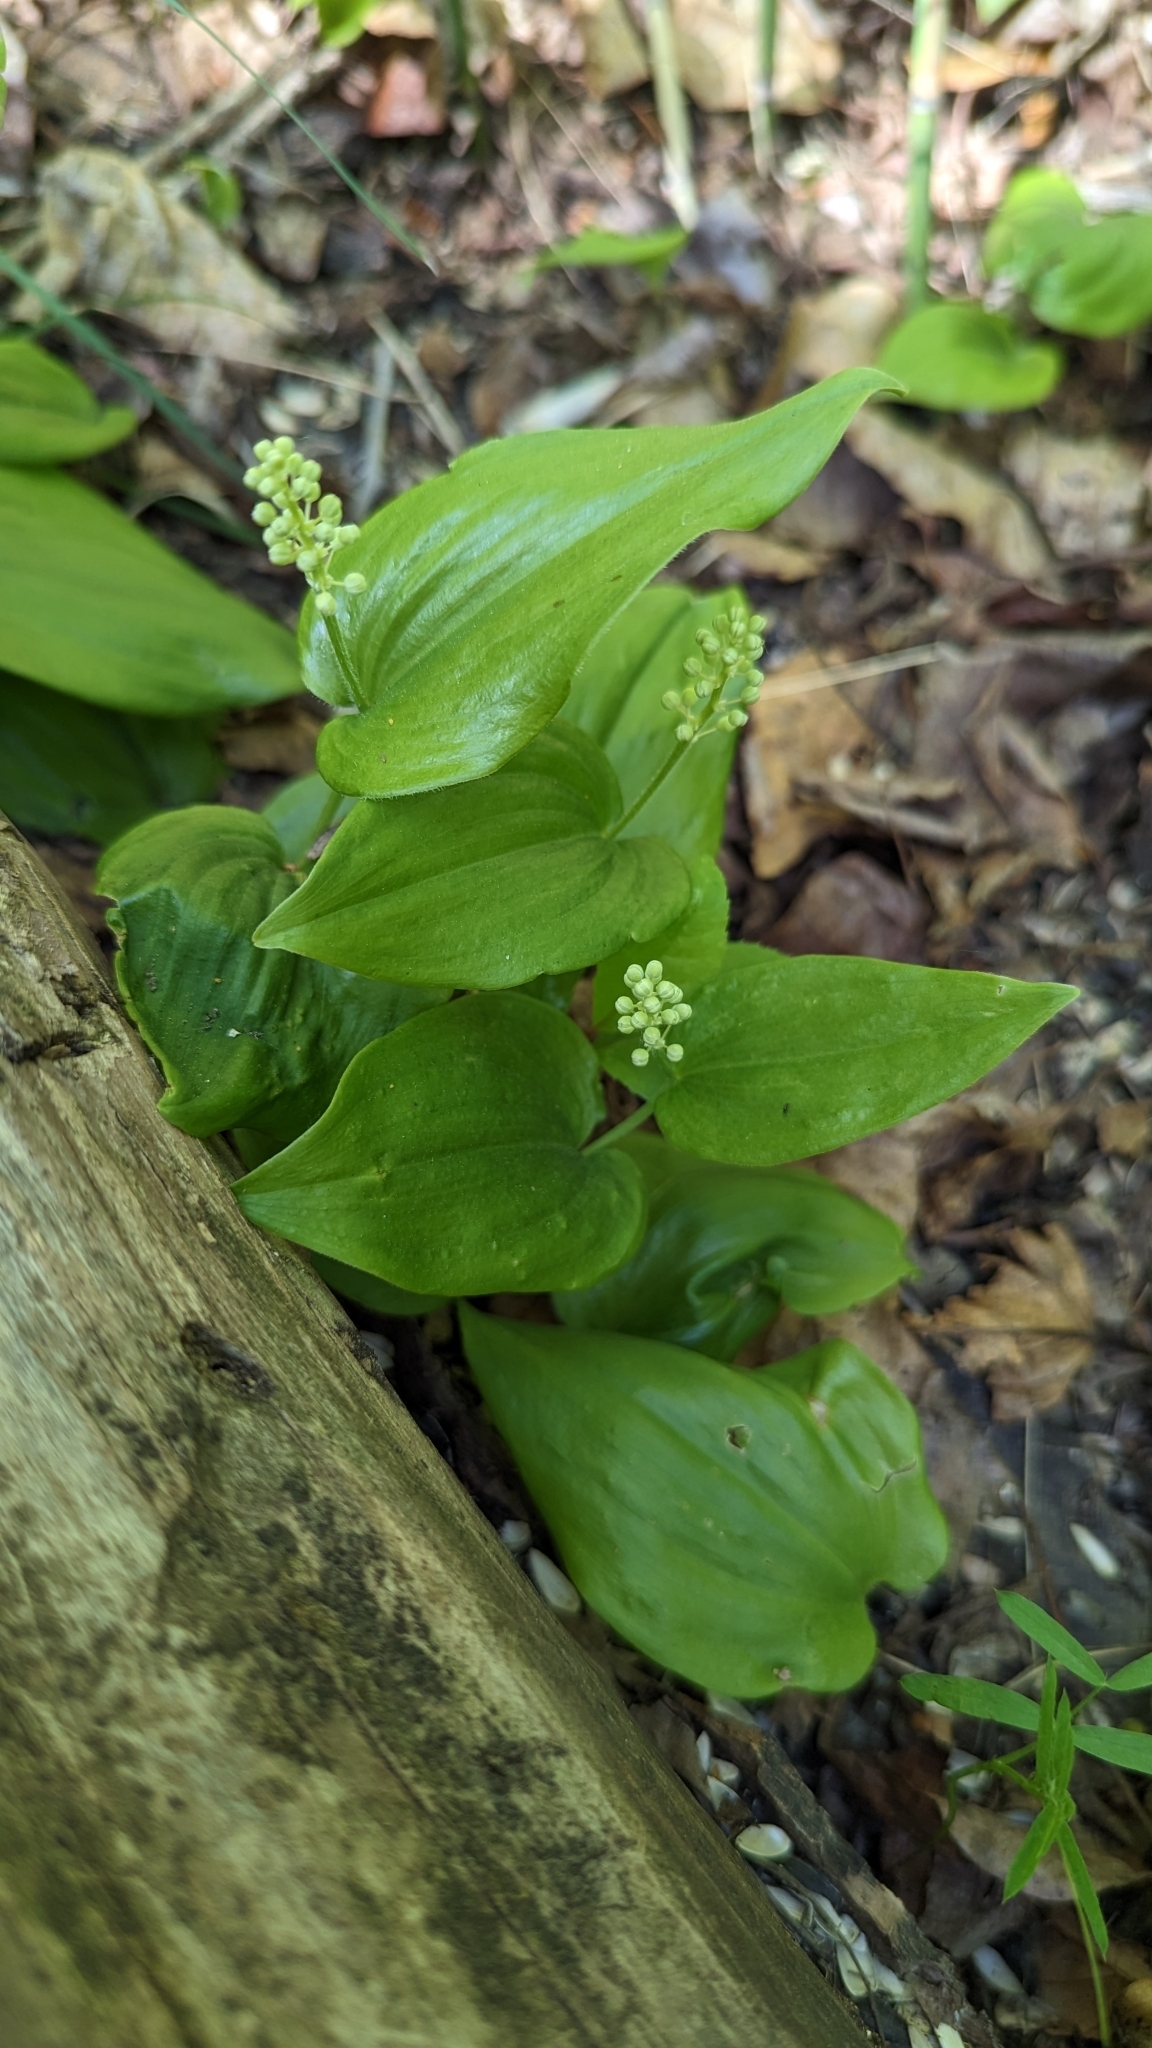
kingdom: Plantae
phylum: Tracheophyta
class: Liliopsida
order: Asparagales
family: Asparagaceae
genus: Maianthemum
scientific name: Maianthemum canadense
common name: False lily-of-the-valley
